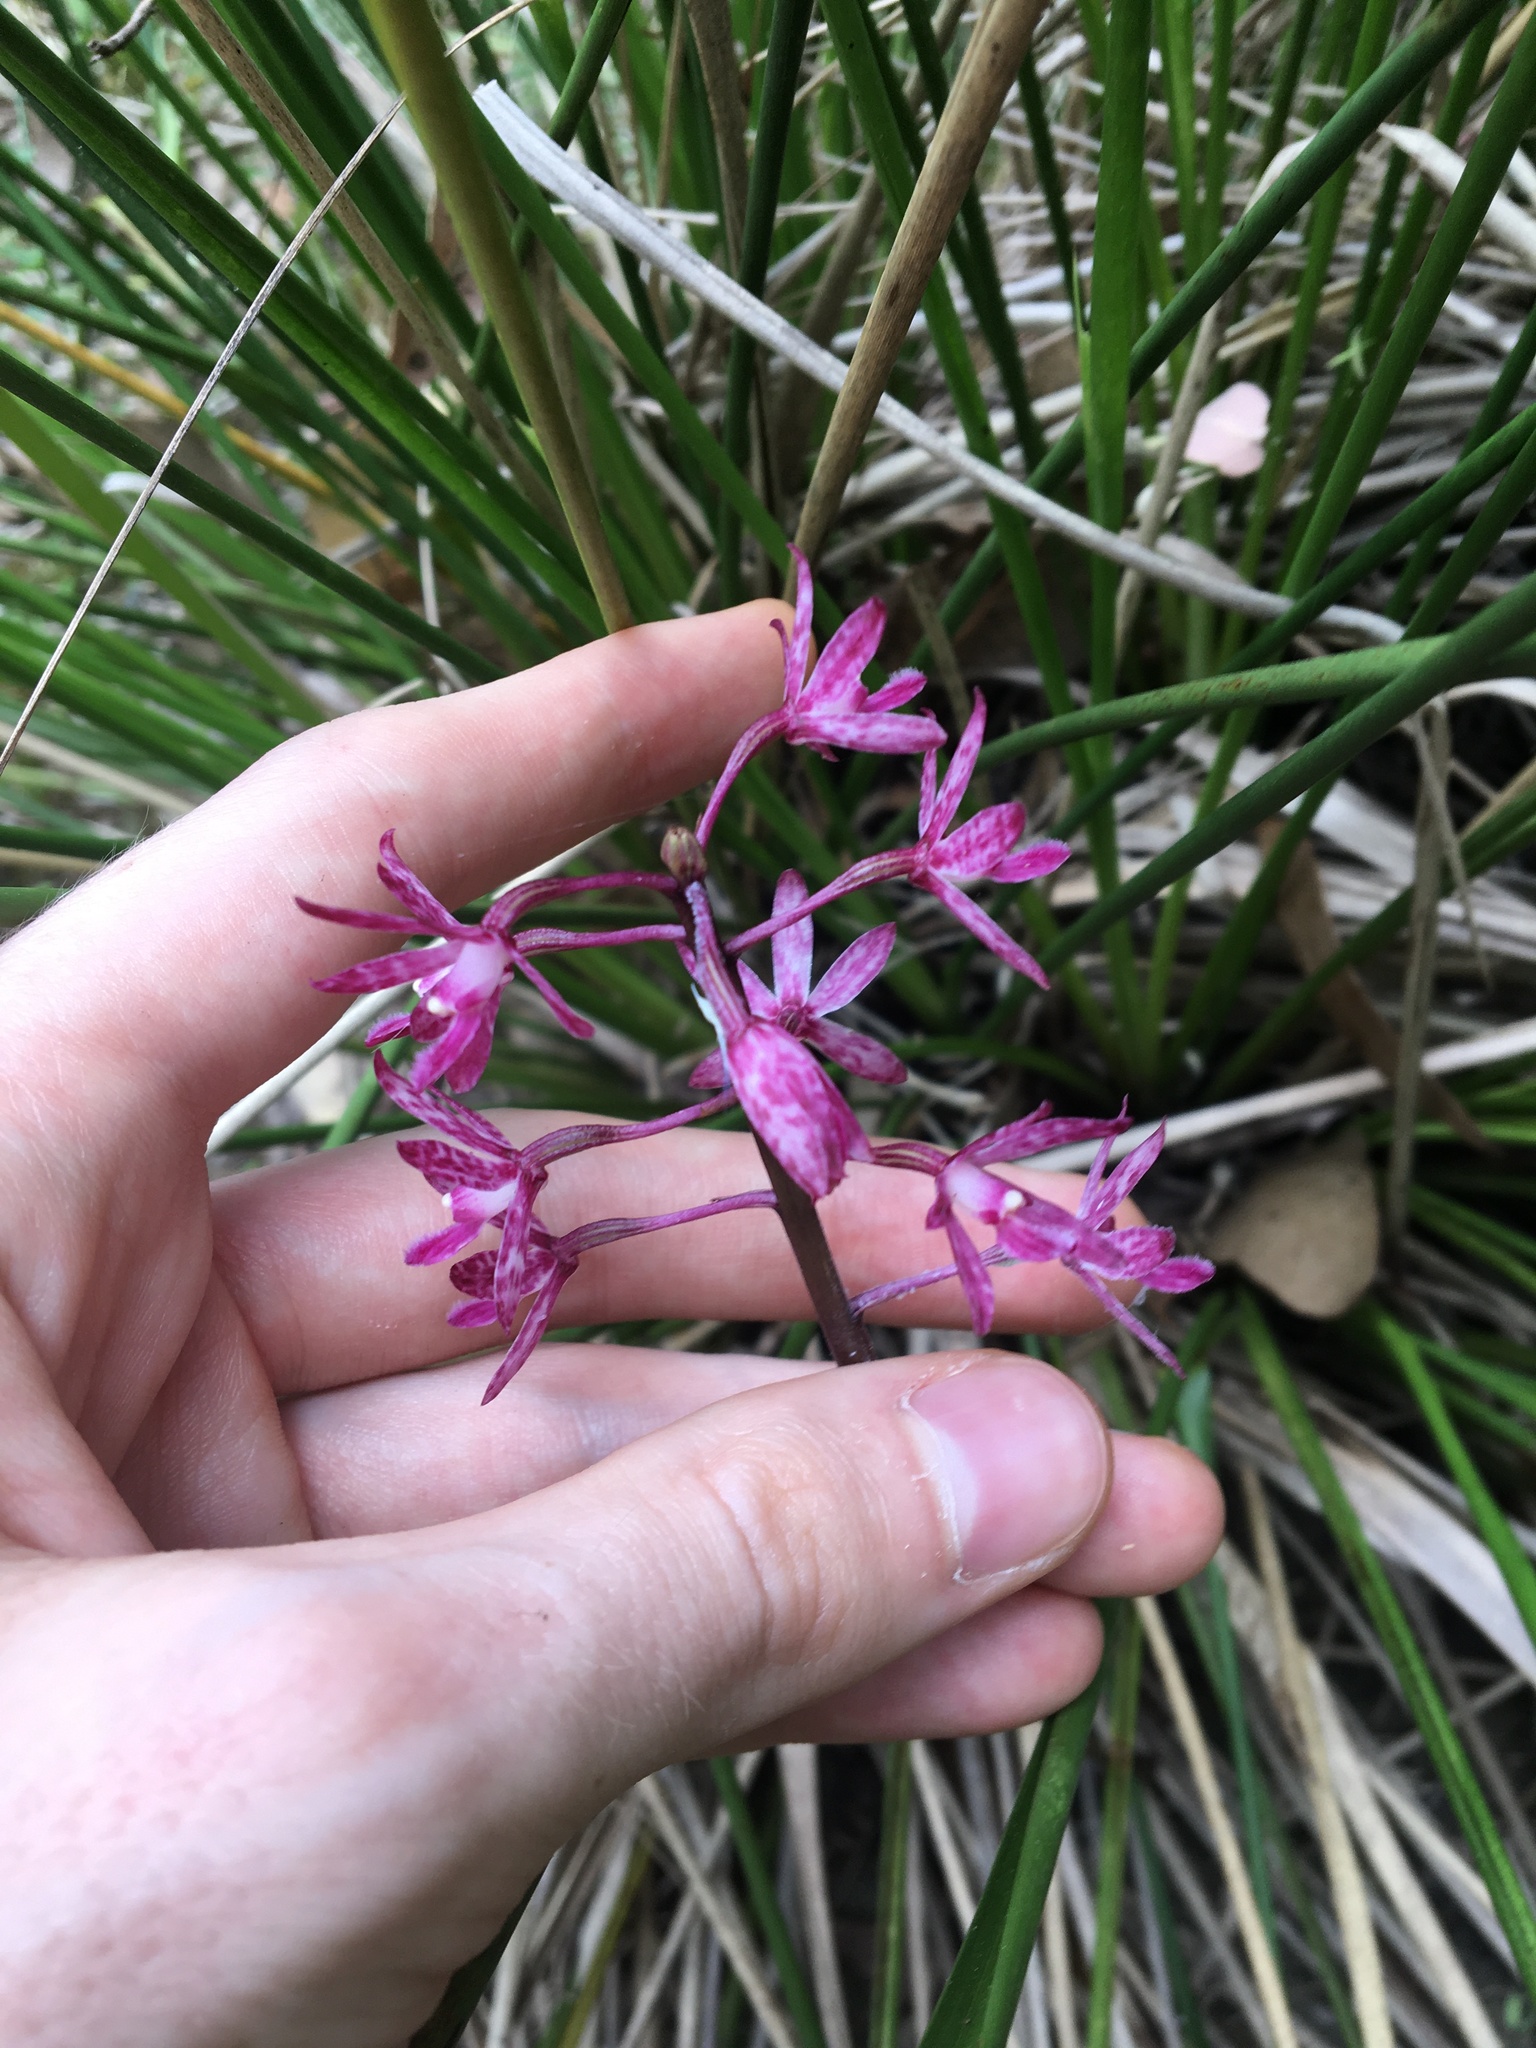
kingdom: Plantae
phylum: Tracheophyta
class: Liliopsida
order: Asparagales
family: Orchidaceae
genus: Dipodium
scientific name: Dipodium squamatum
